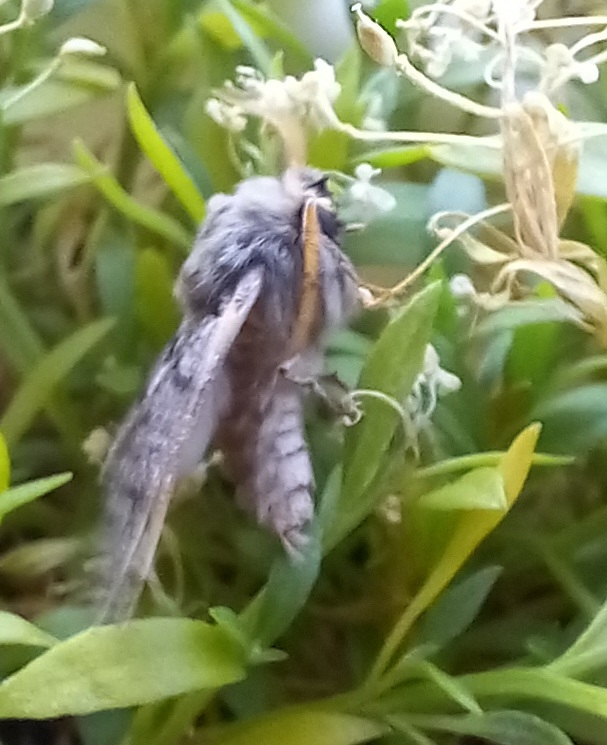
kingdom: Animalia
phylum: Arthropoda
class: Insecta
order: Lepidoptera
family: Notodontidae
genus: Thaumetopoea
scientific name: Thaumetopoea pityocampa
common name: Pine processionary
